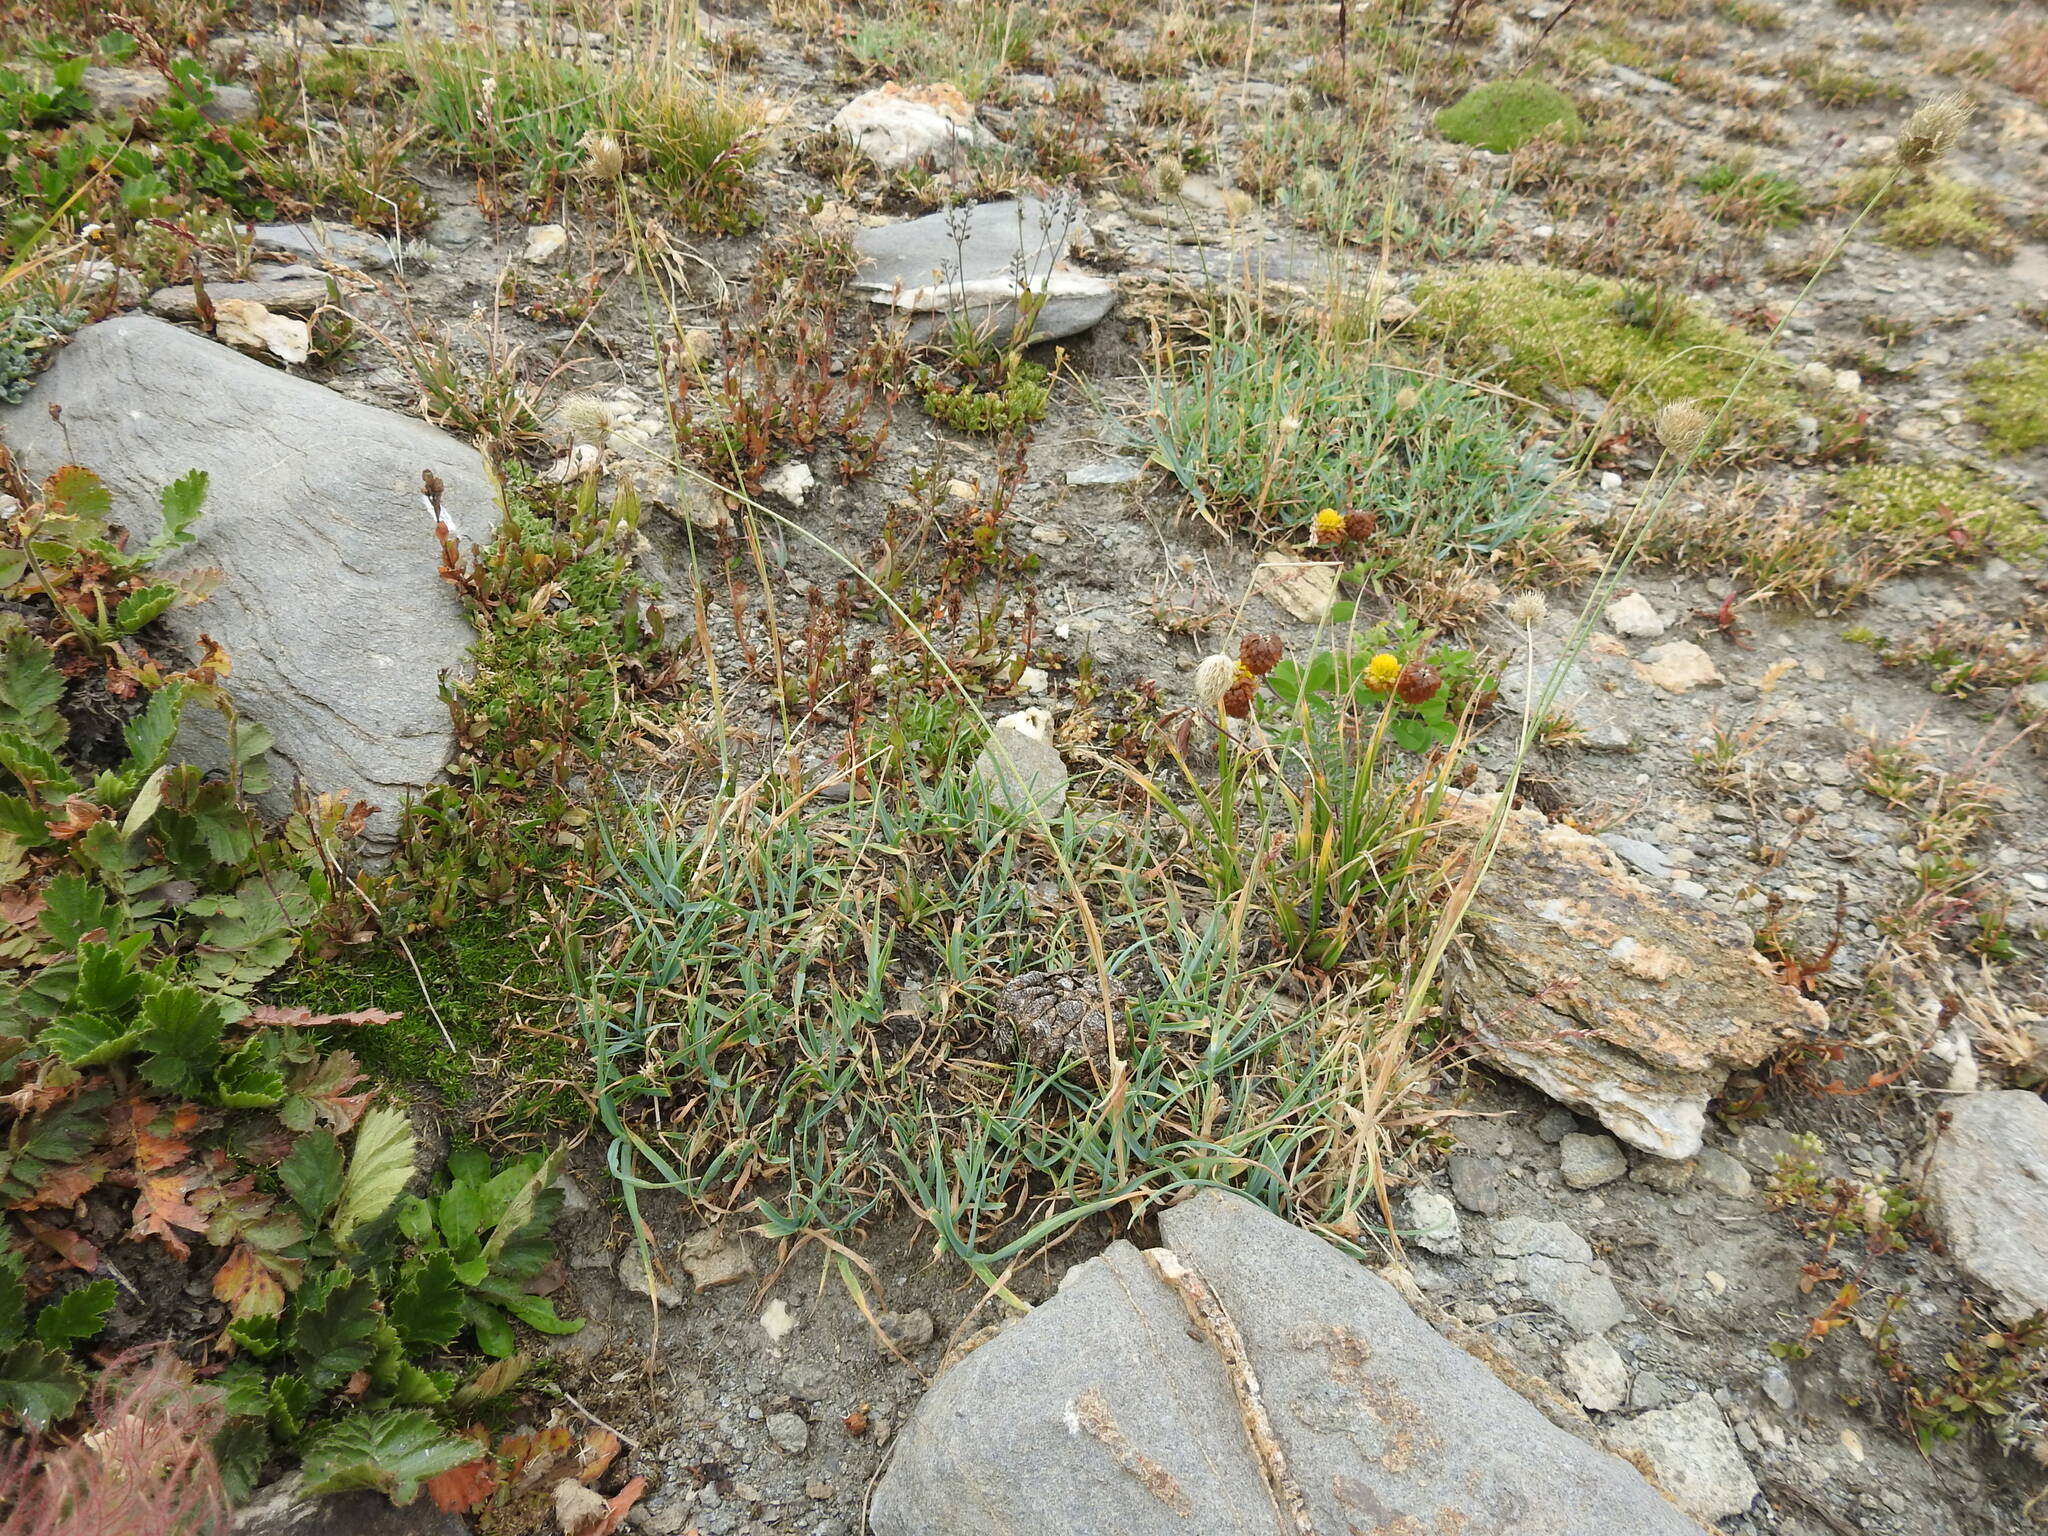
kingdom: Plantae
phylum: Tracheophyta
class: Liliopsida
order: Poales
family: Poaceae
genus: Alopecurus
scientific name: Alopecurus gerardii
